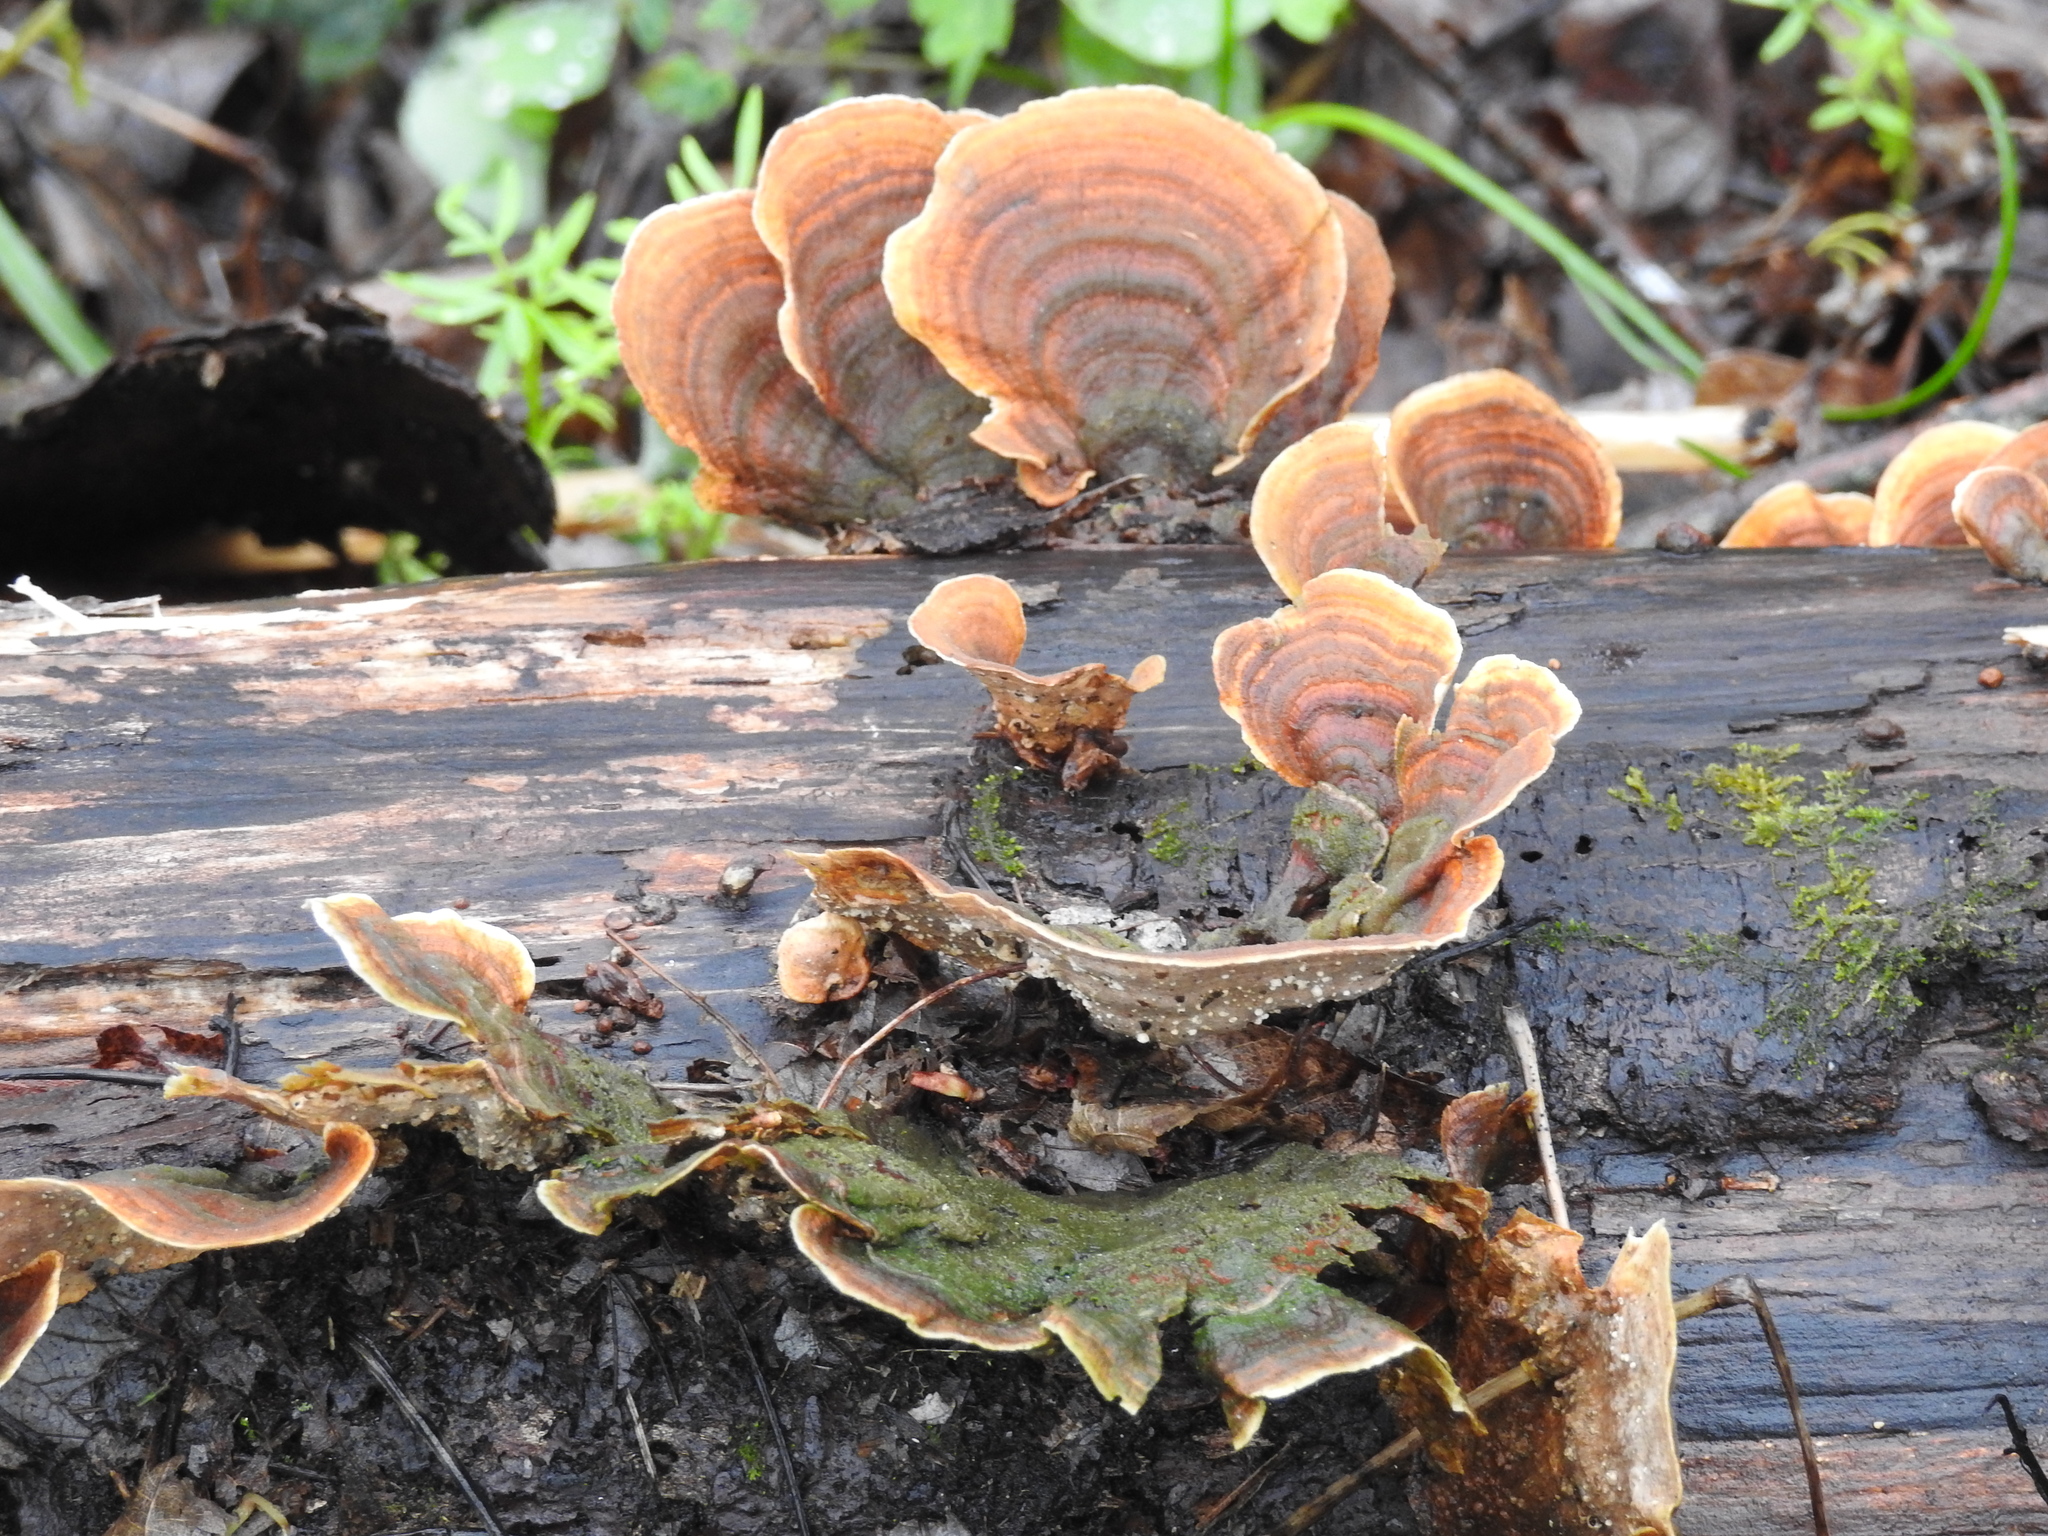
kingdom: Fungi
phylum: Basidiomycota
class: Agaricomycetes
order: Russulales
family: Stereaceae
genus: Stereum
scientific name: Stereum ostrea
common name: False turkeytail
